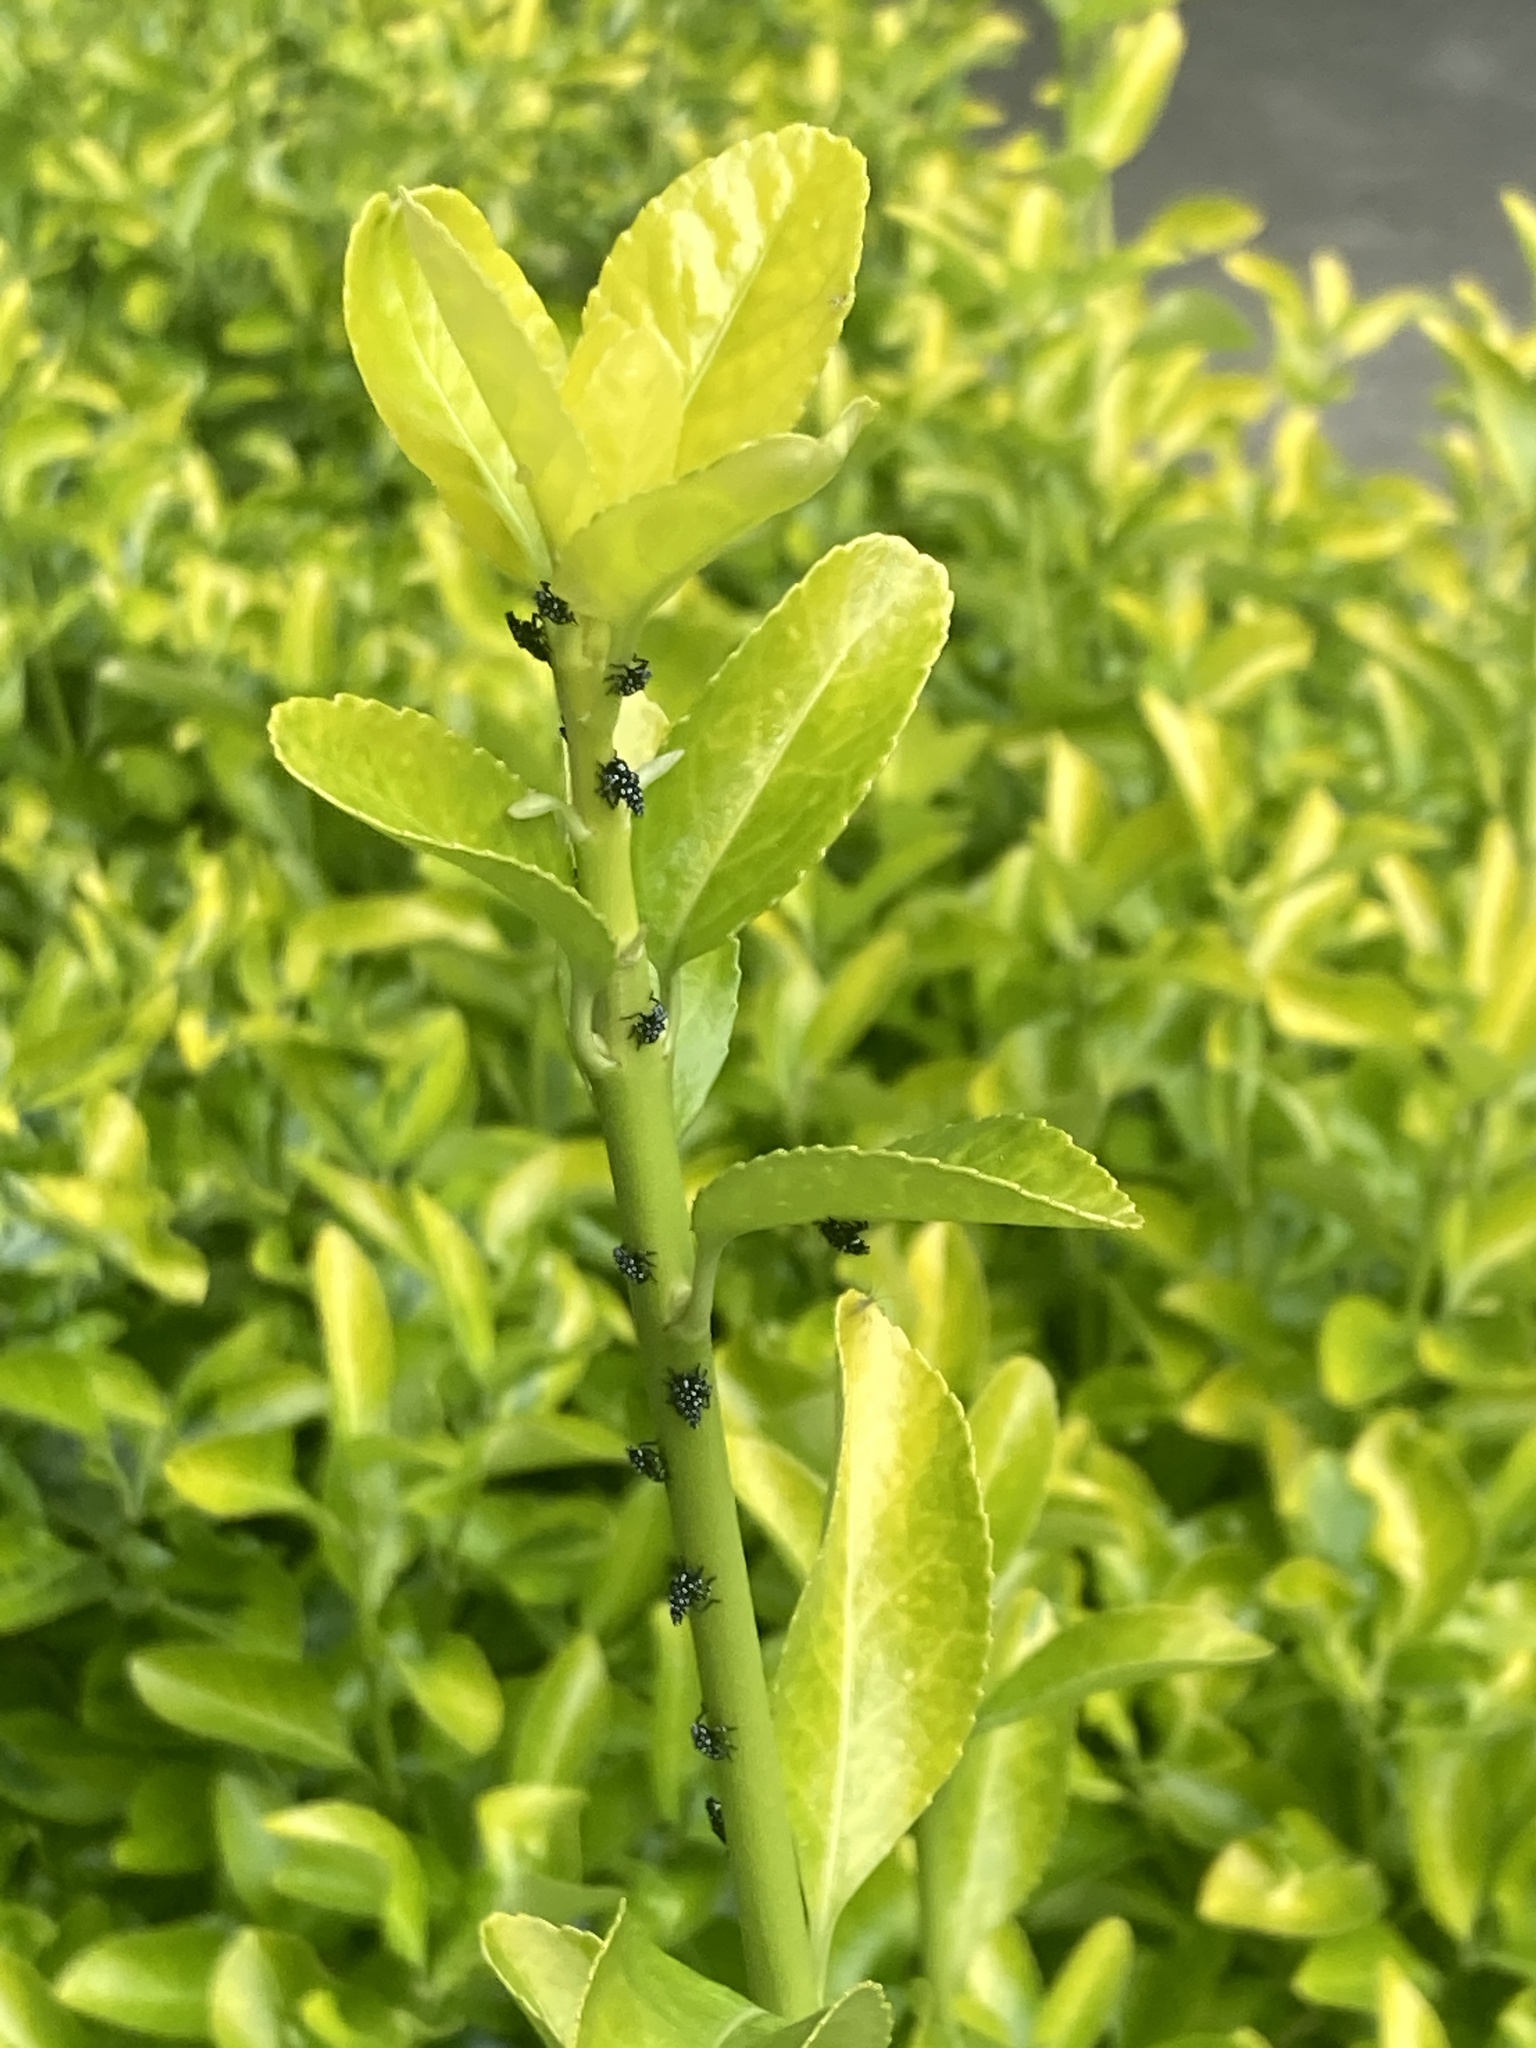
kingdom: Animalia
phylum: Arthropoda
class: Insecta
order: Hemiptera
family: Fulgoridae
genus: Lycorma
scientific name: Lycorma delicatula
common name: Spotted lanternfly
